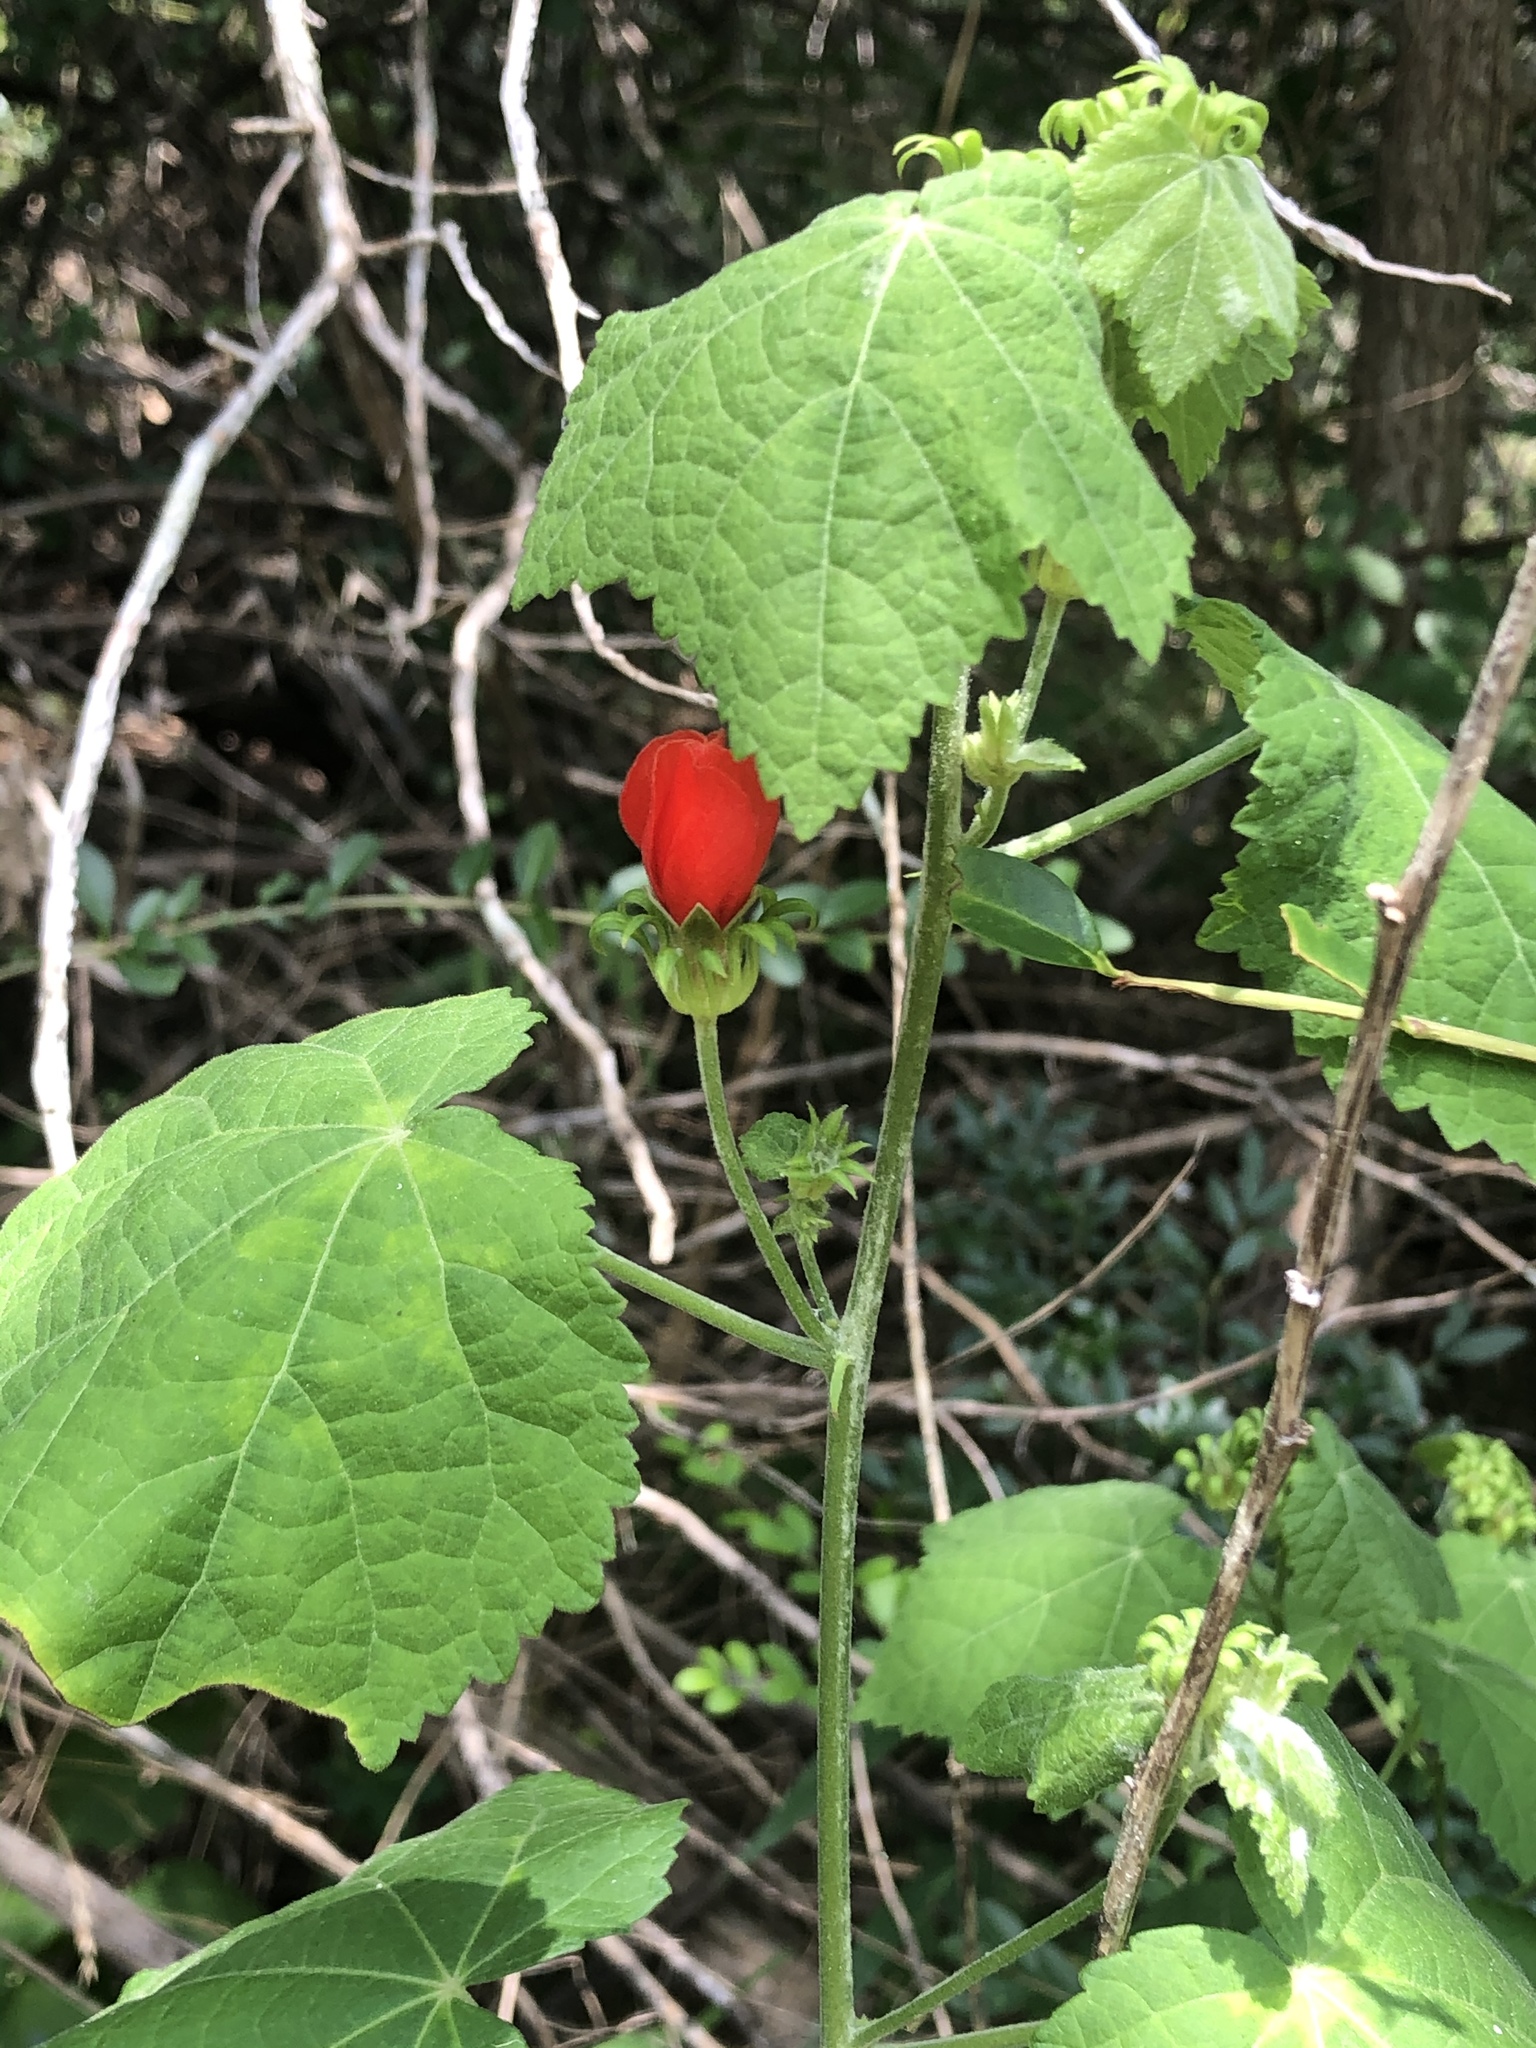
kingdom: Plantae
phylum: Tracheophyta
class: Magnoliopsida
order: Malvales
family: Malvaceae
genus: Malvaviscus
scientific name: Malvaviscus arboreus
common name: Wax mallow
